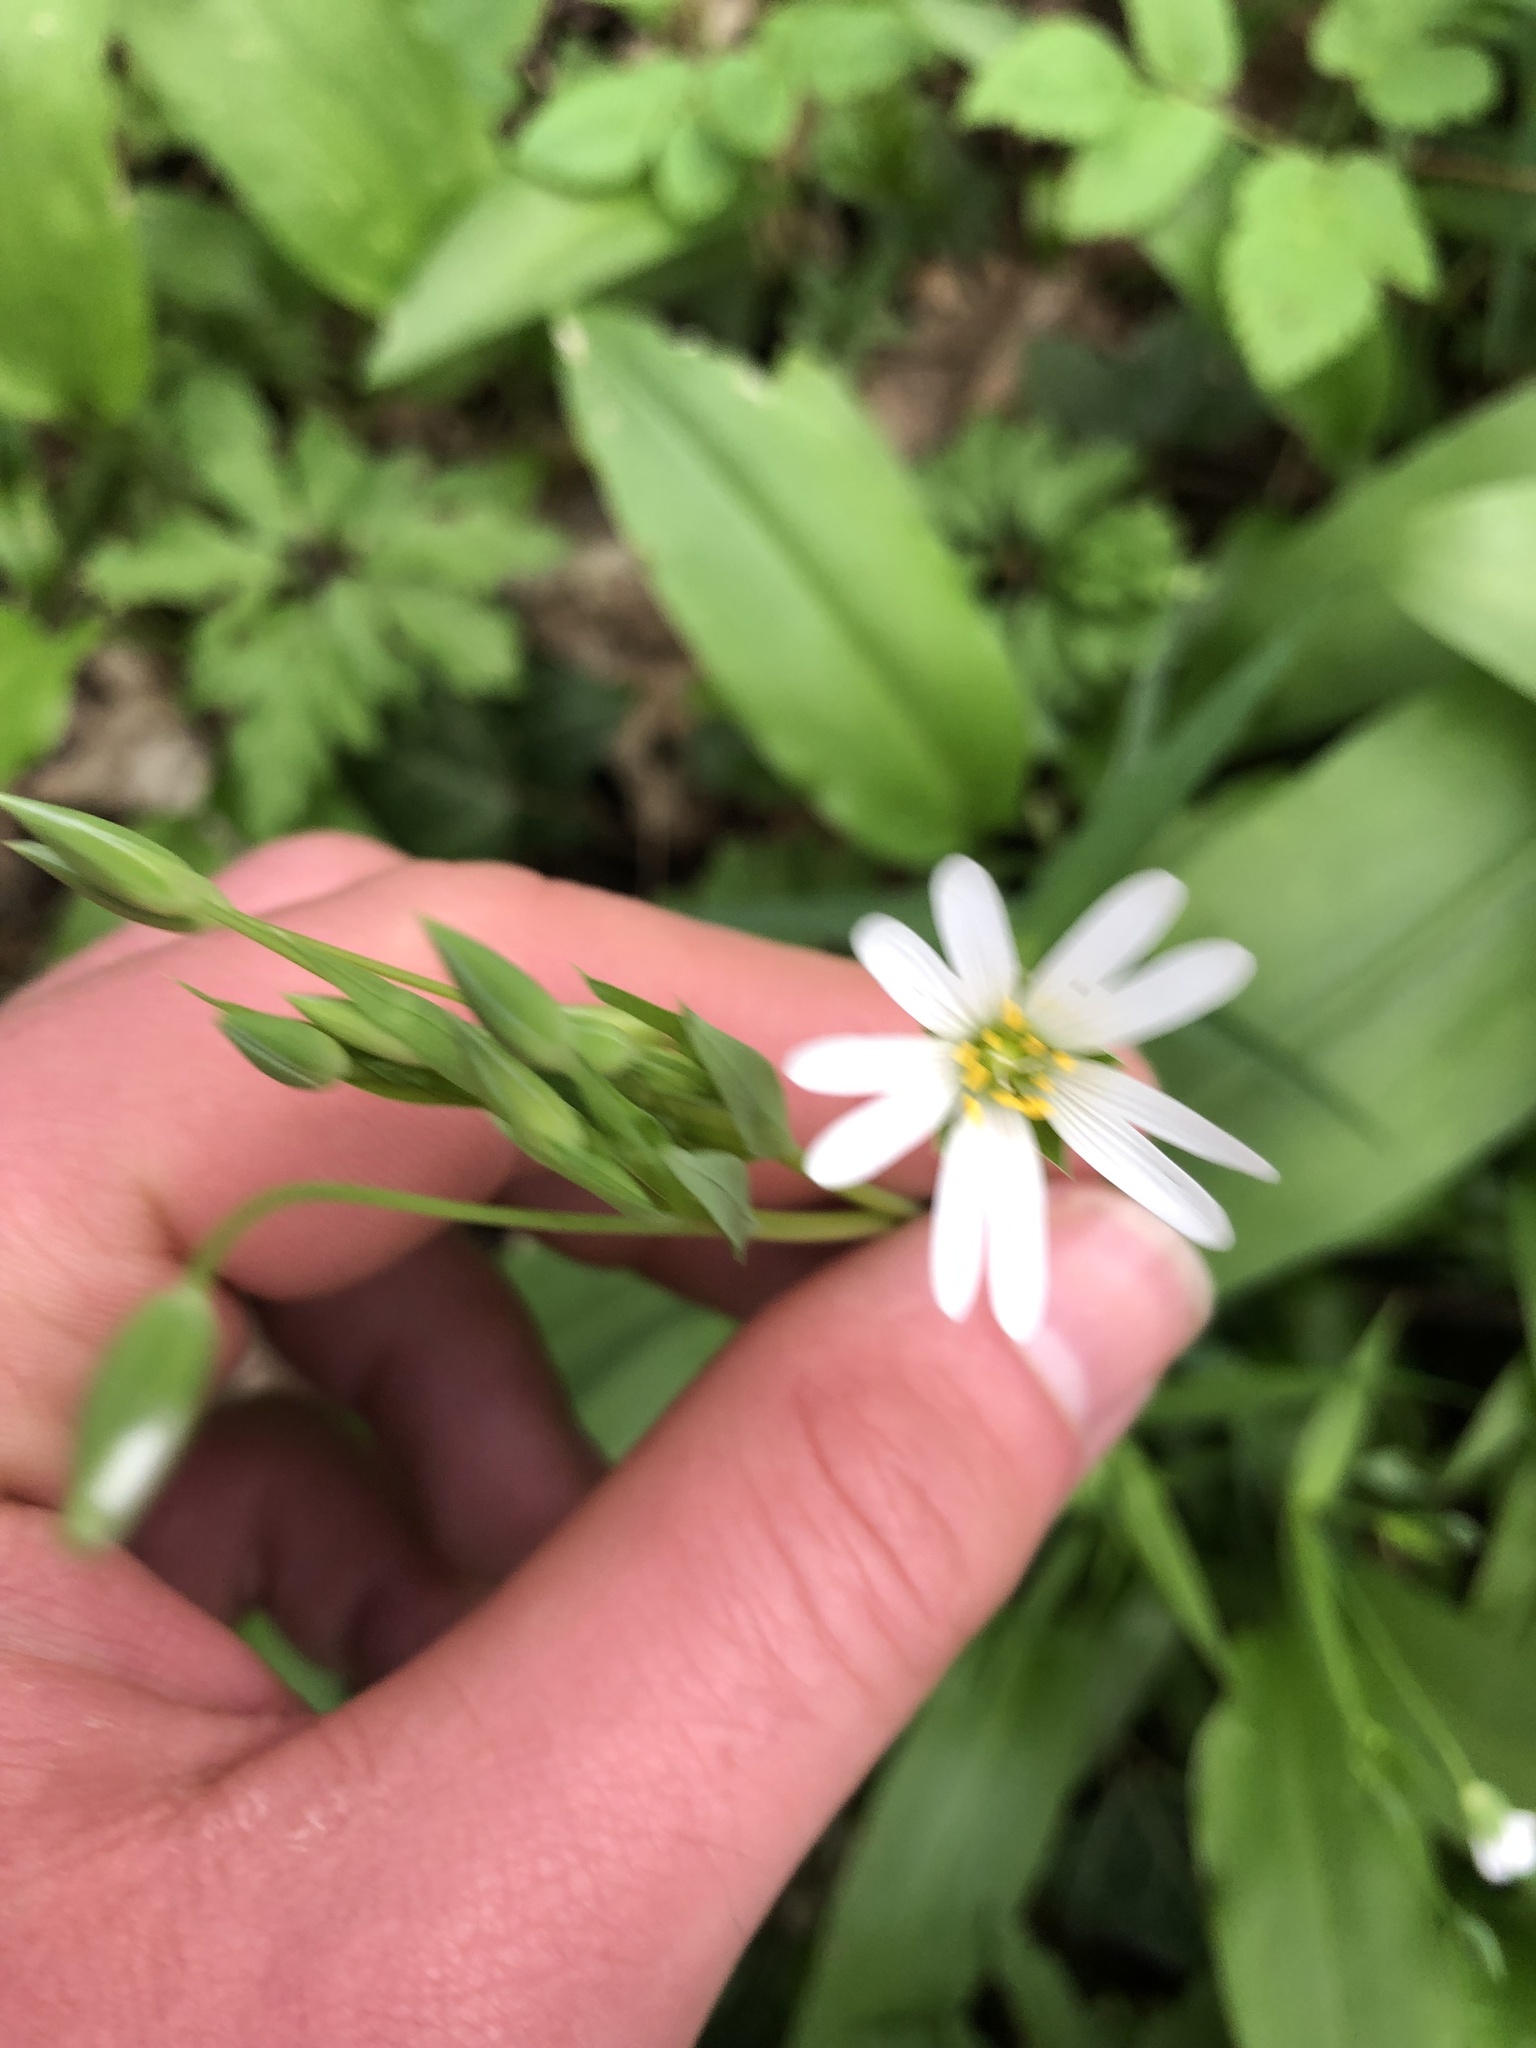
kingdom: Plantae
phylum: Tracheophyta
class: Magnoliopsida
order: Caryophyllales
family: Caryophyllaceae
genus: Rabelera
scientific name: Rabelera holostea
